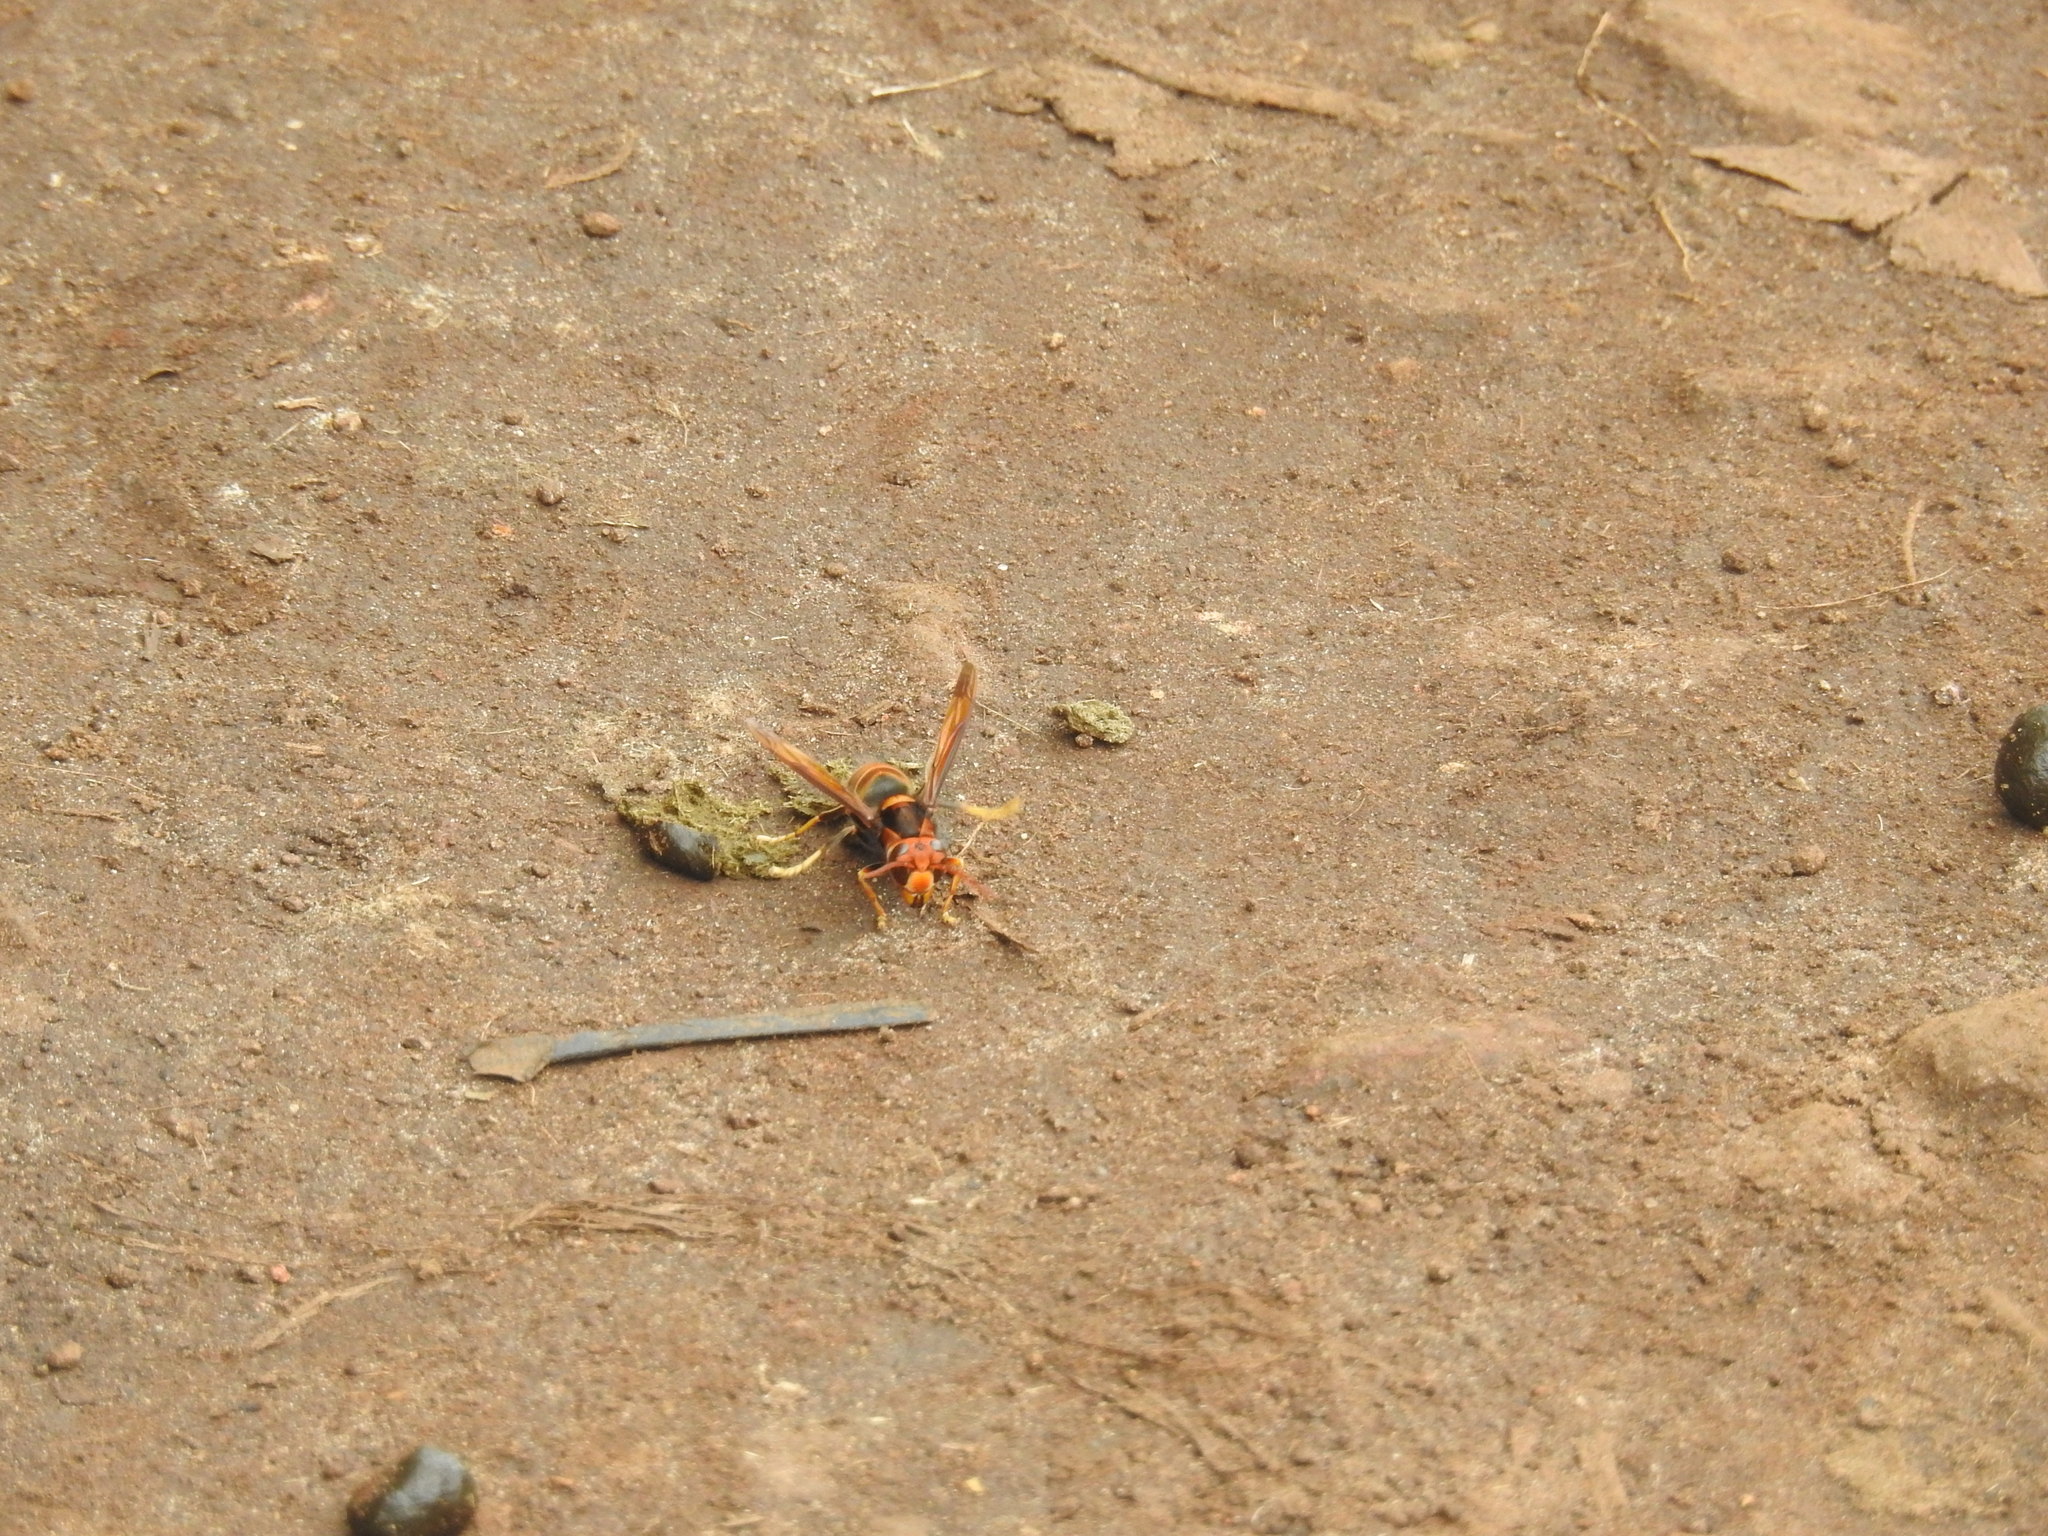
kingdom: Animalia
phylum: Arthropoda
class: Insecta
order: Hymenoptera
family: Vespidae
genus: Vespa
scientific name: Vespa velutina
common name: Asian hornet
